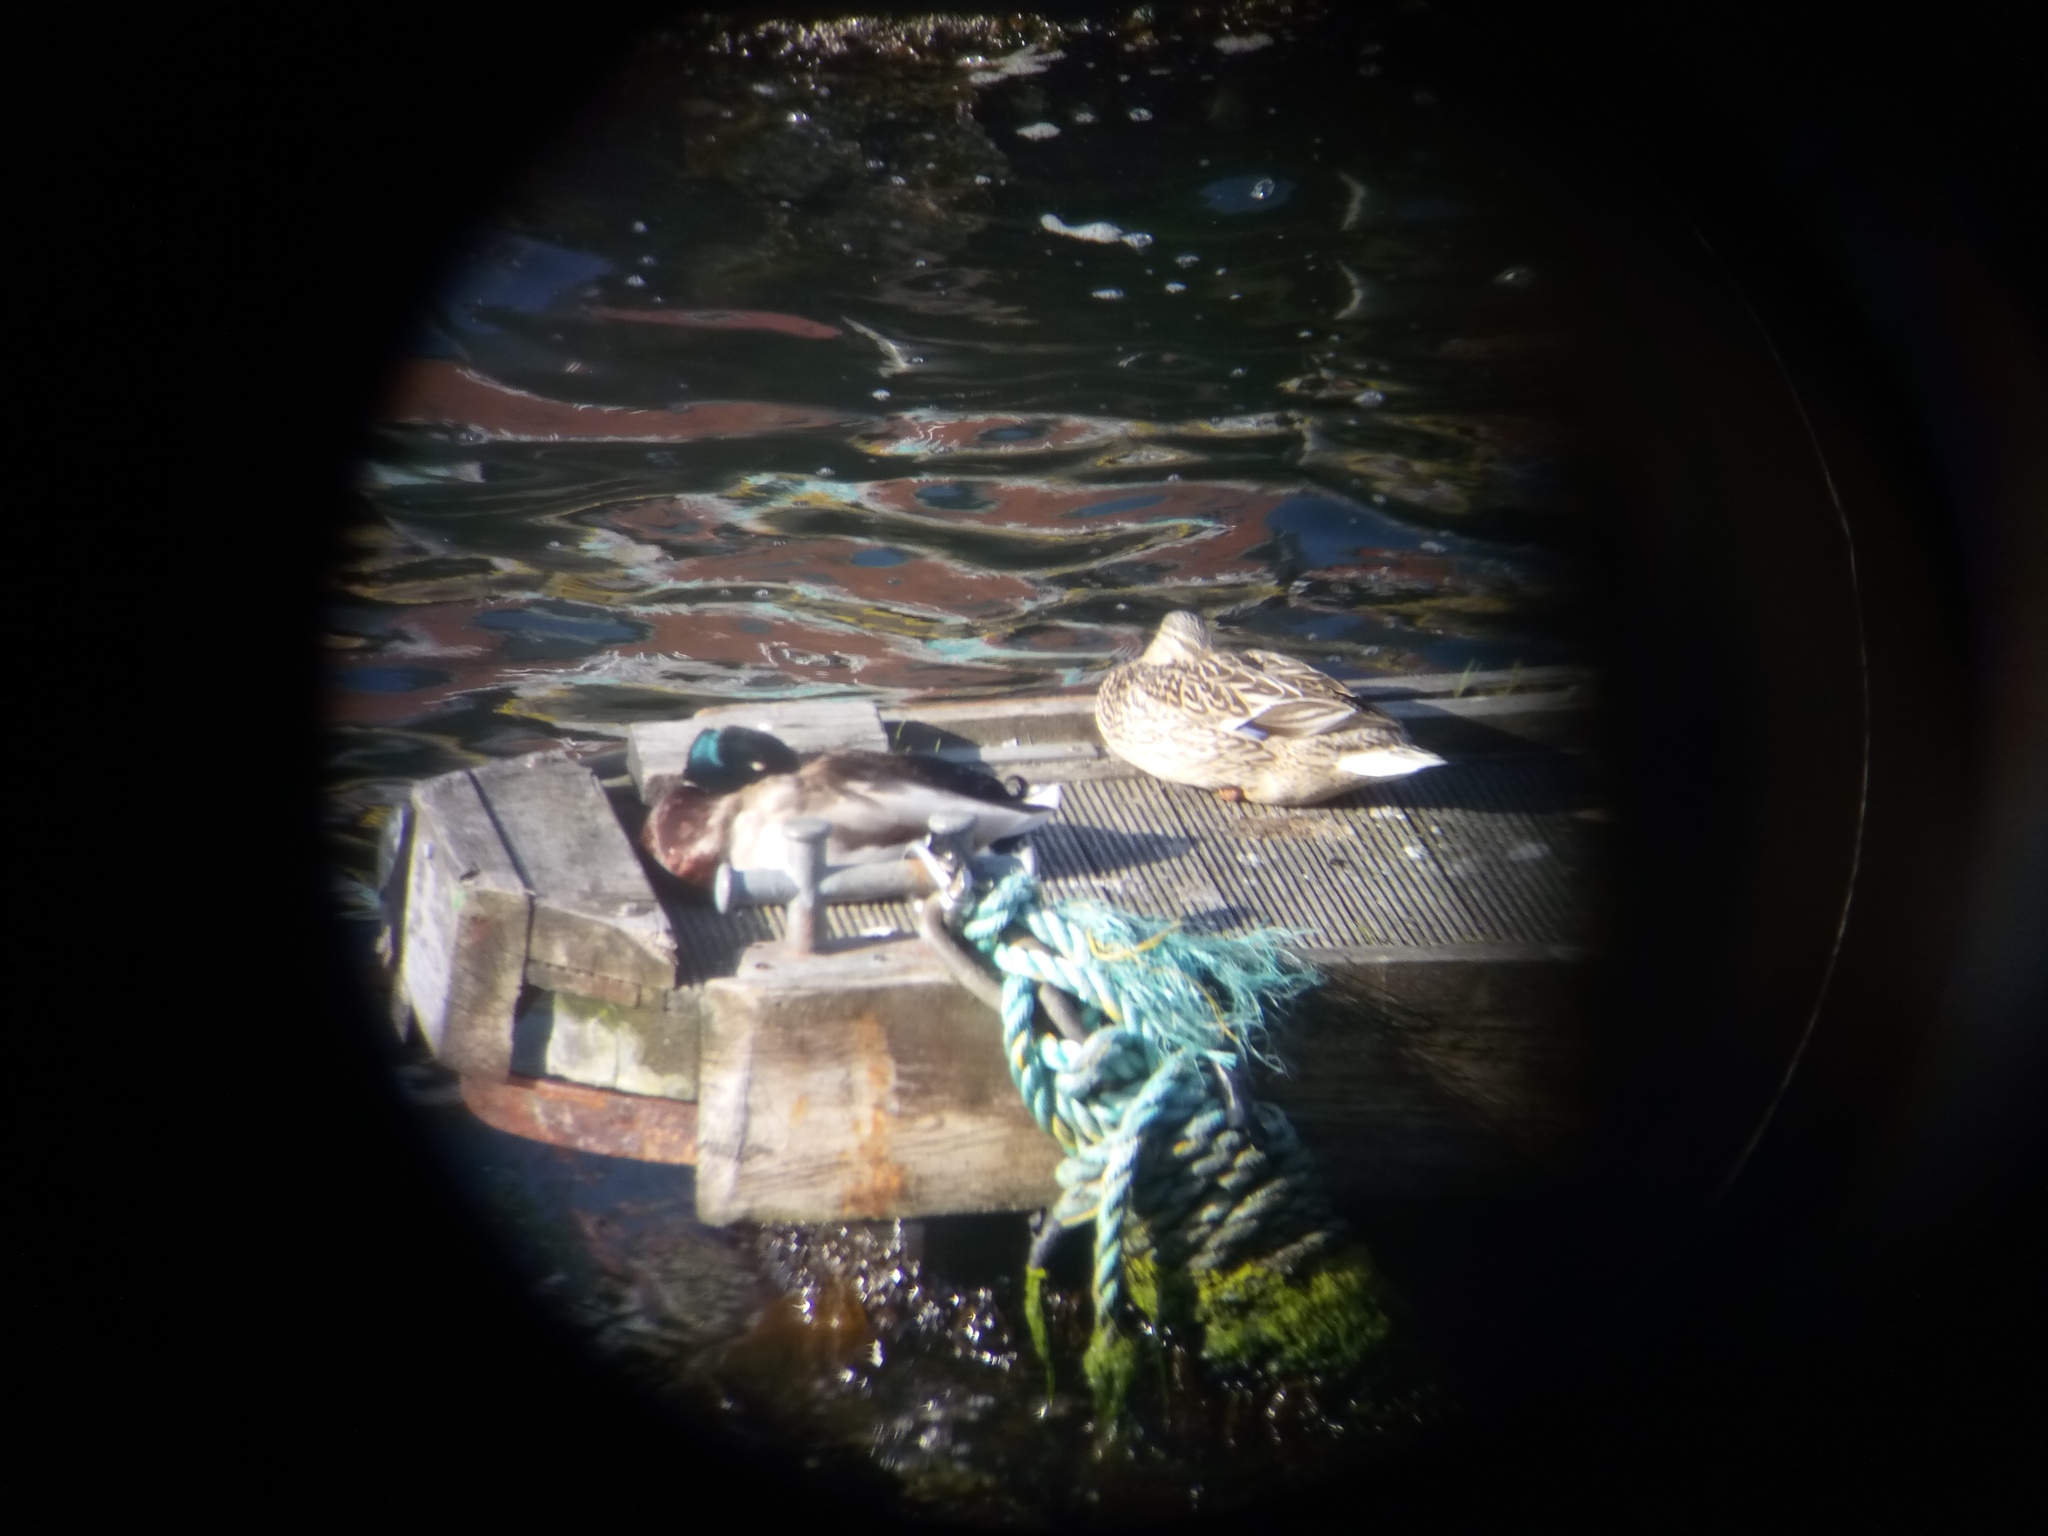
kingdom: Animalia
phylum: Chordata
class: Aves
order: Anseriformes
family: Anatidae
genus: Anas
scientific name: Anas platyrhynchos
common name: Mallard
